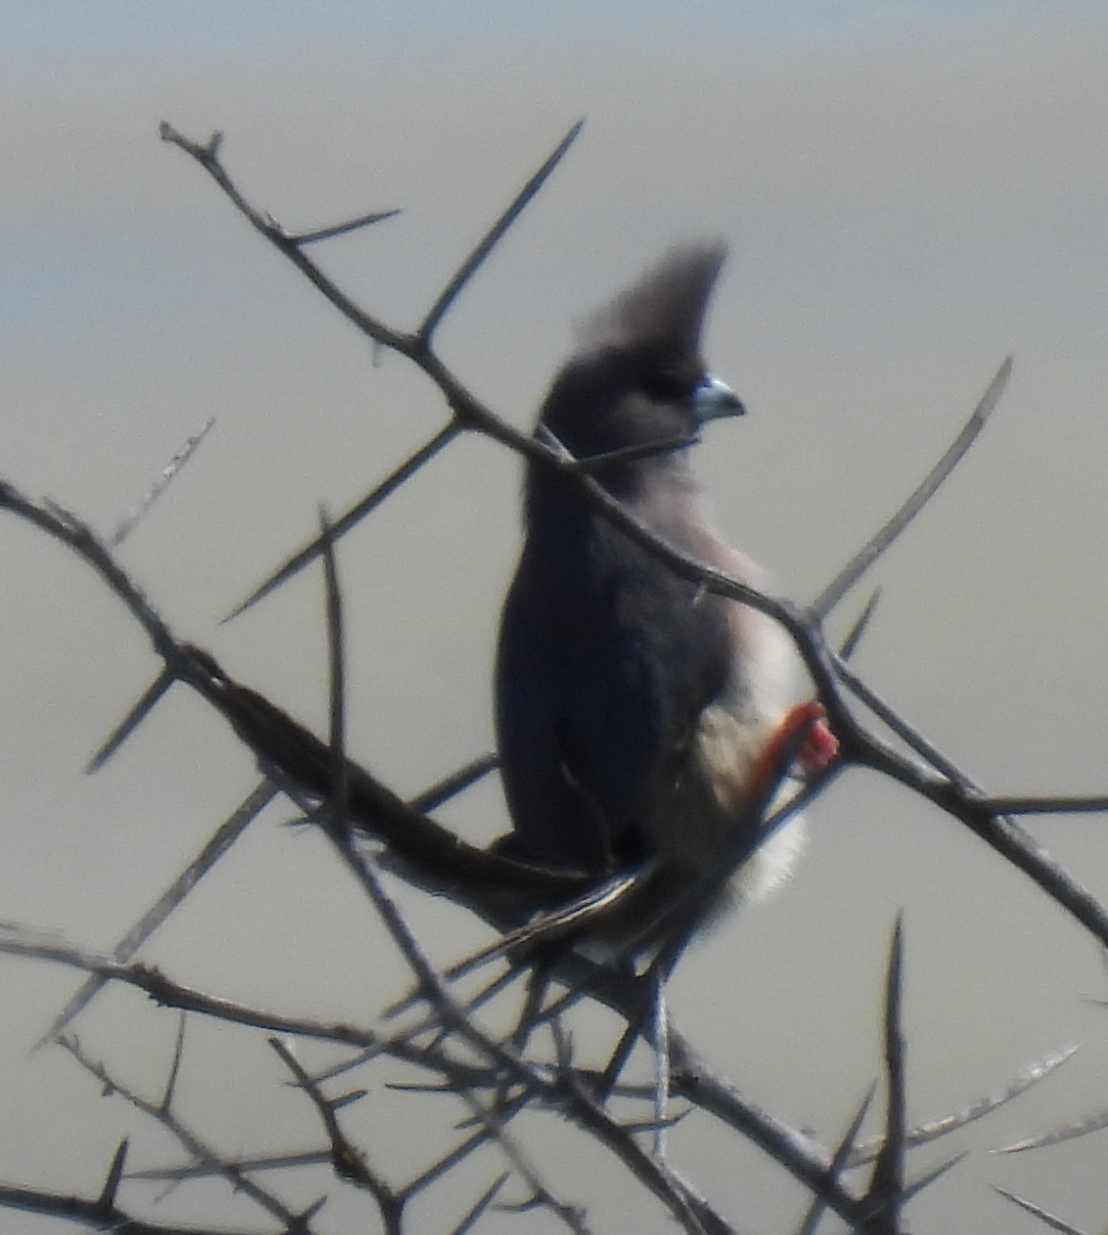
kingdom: Animalia
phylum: Chordata
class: Aves
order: Coliiformes
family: Coliidae
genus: Colius
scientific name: Colius colius
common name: White-backed mousebird
